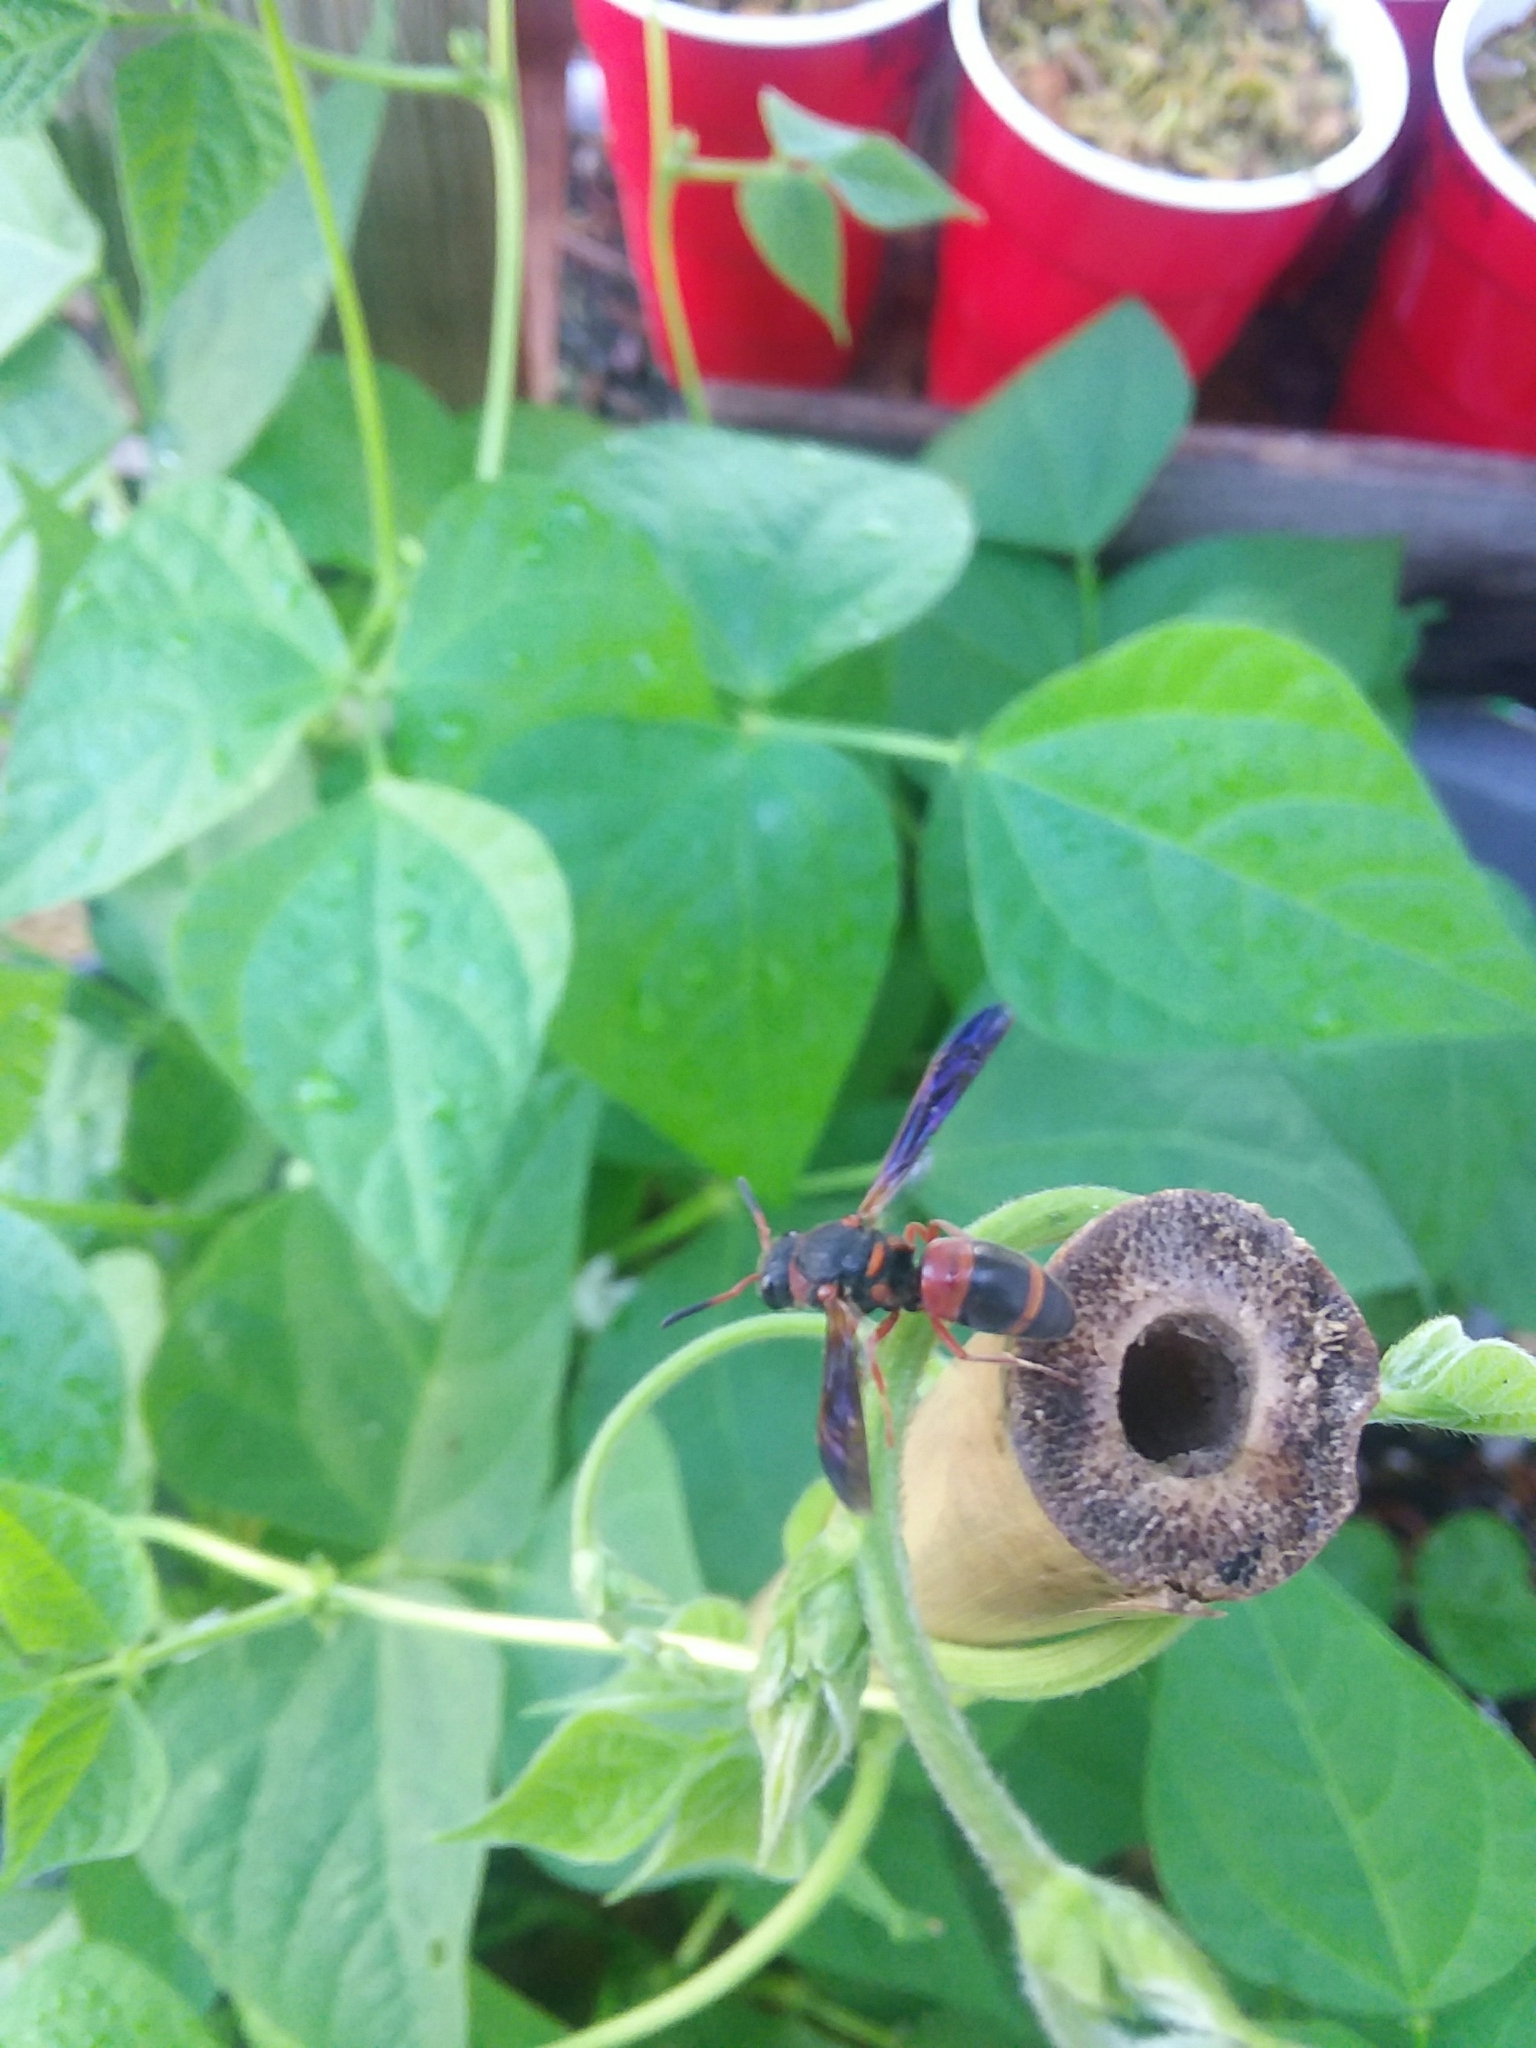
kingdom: Animalia
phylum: Arthropoda
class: Insecta
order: Hymenoptera
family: Eumenidae
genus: Pachodynerus
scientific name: Pachodynerus erynnis
